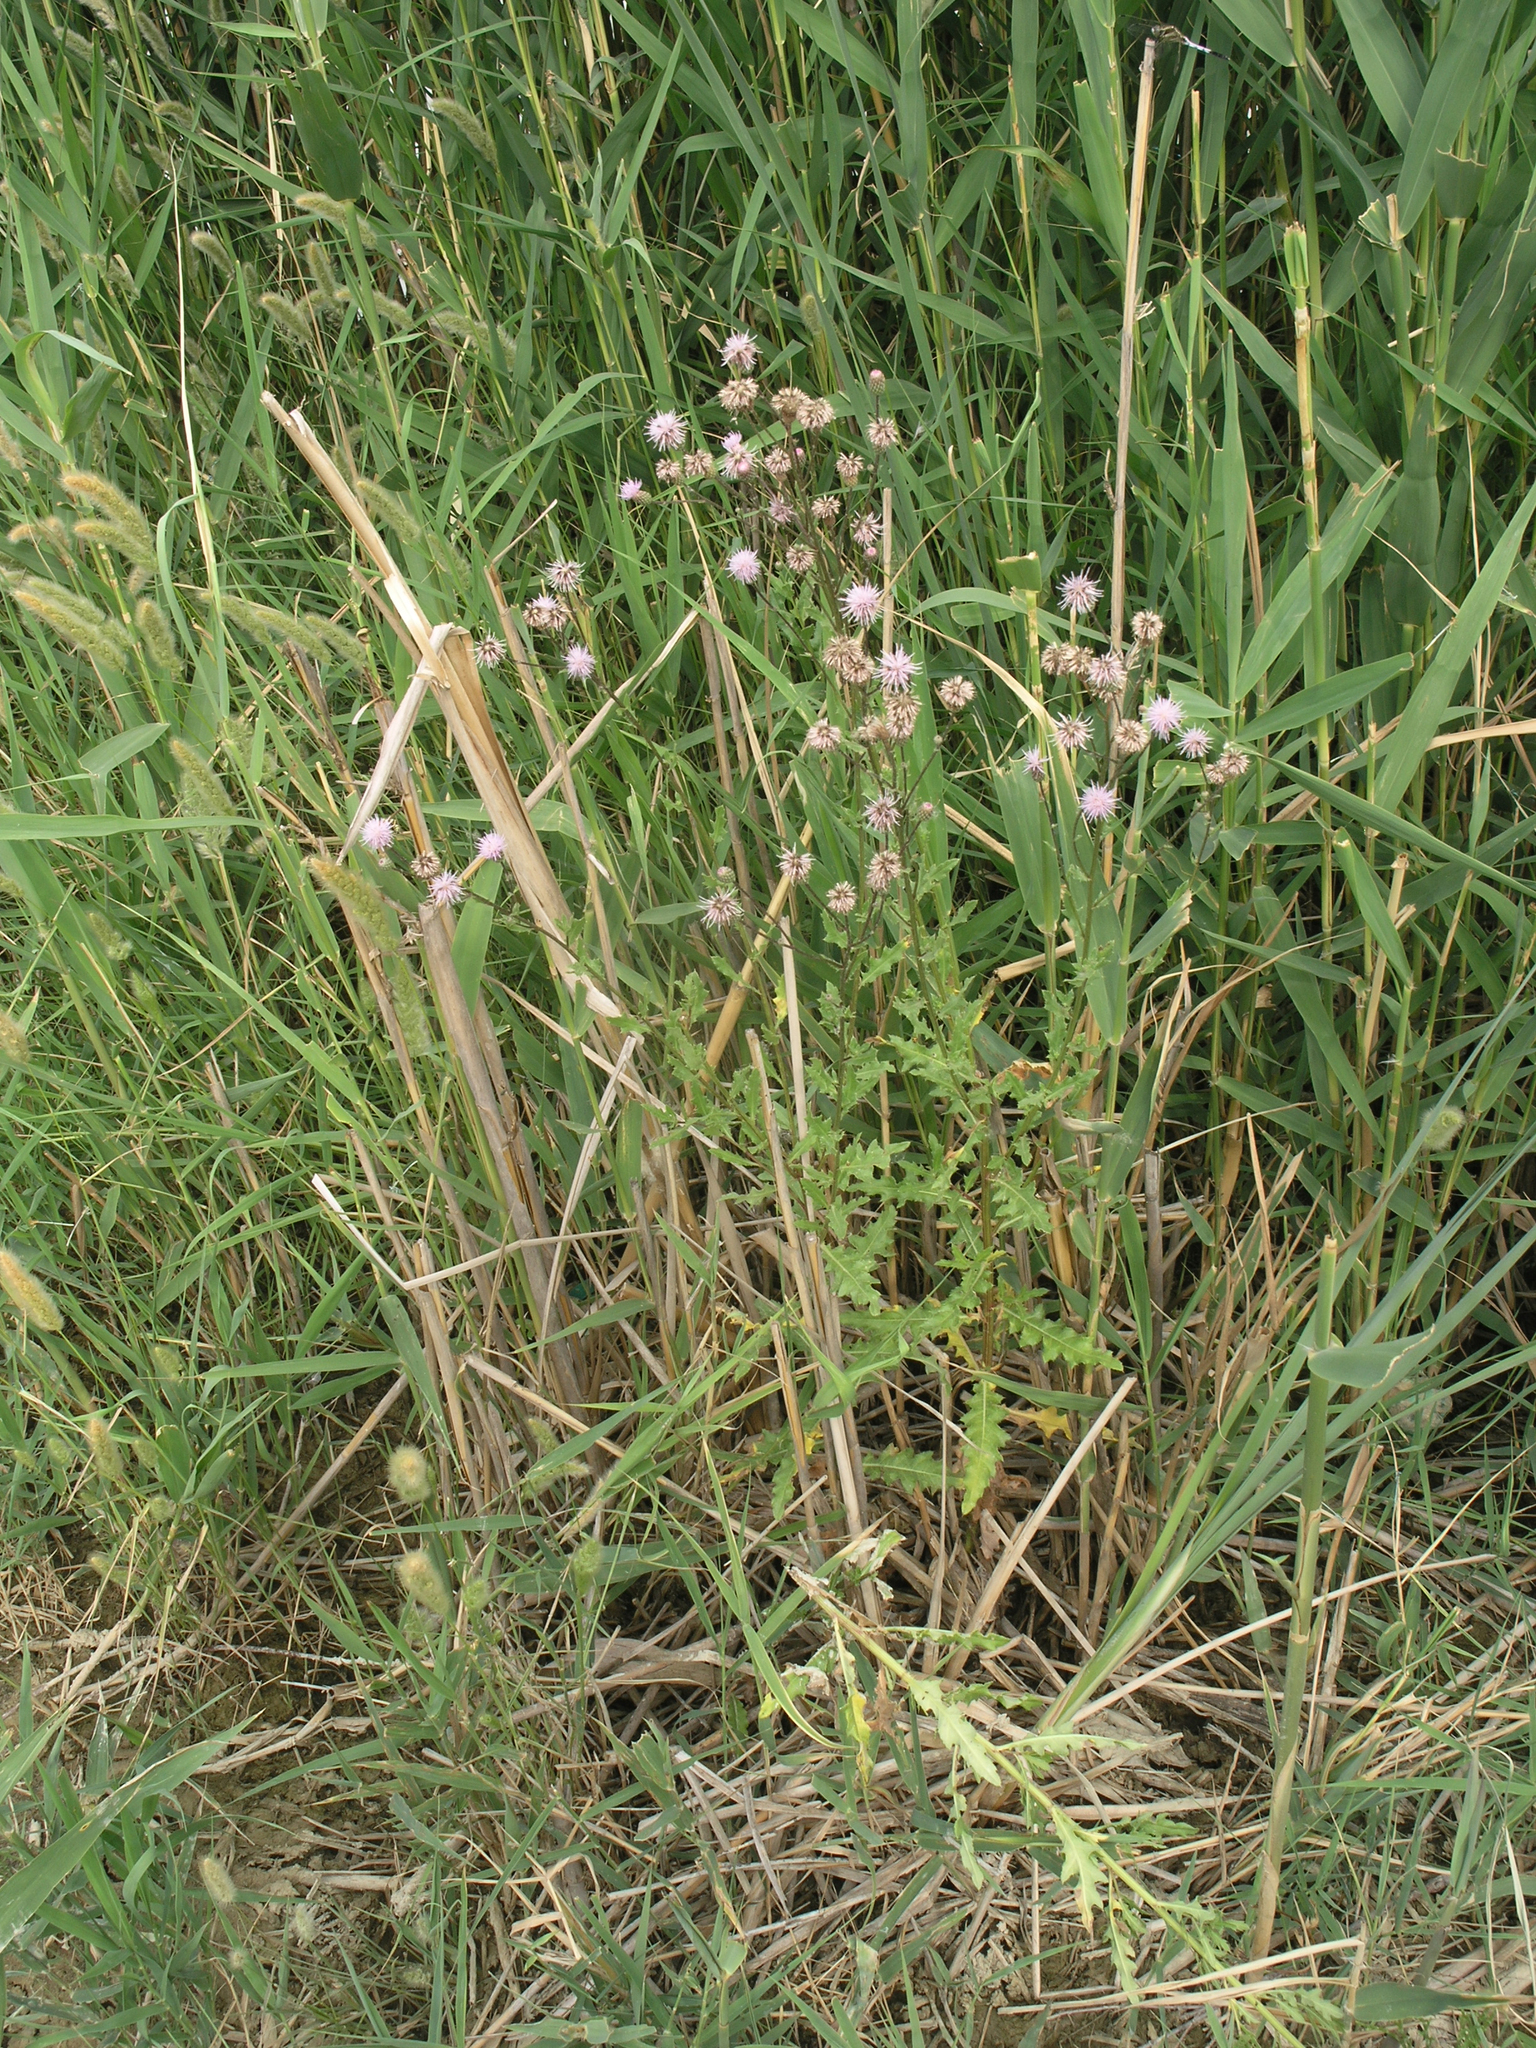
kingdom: Plantae
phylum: Tracheophyta
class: Magnoliopsida
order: Asterales
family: Asteraceae
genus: Cirsium
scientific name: Cirsium arvense
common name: Creeping thistle
